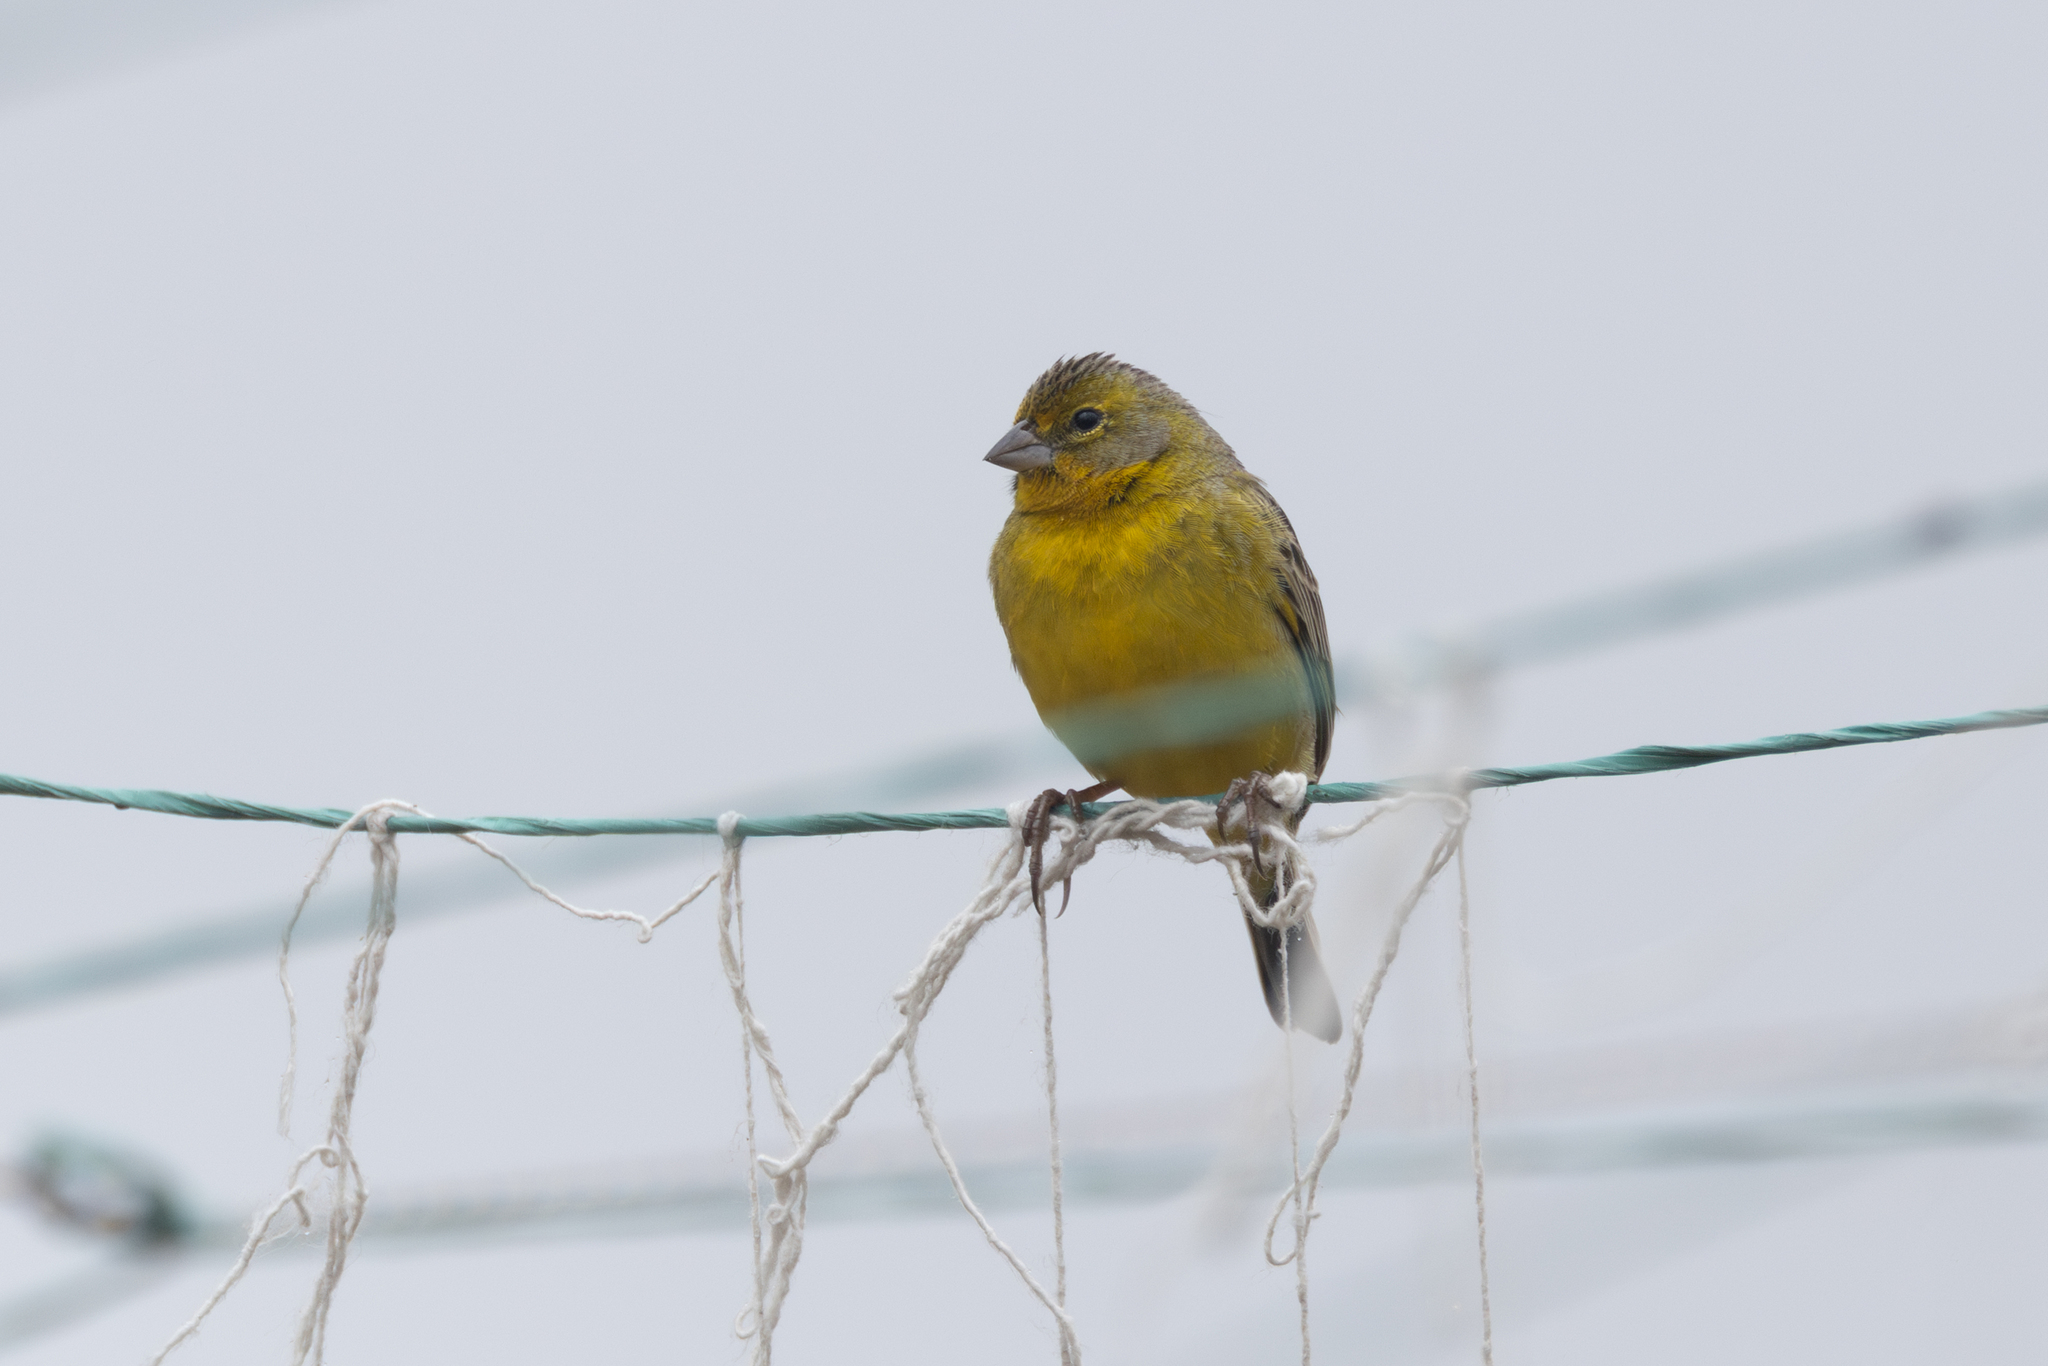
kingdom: Animalia
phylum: Chordata
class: Aves
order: Passeriformes
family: Thraupidae
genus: Sicalis
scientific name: Sicalis luteola
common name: Grassland yellow-finch
